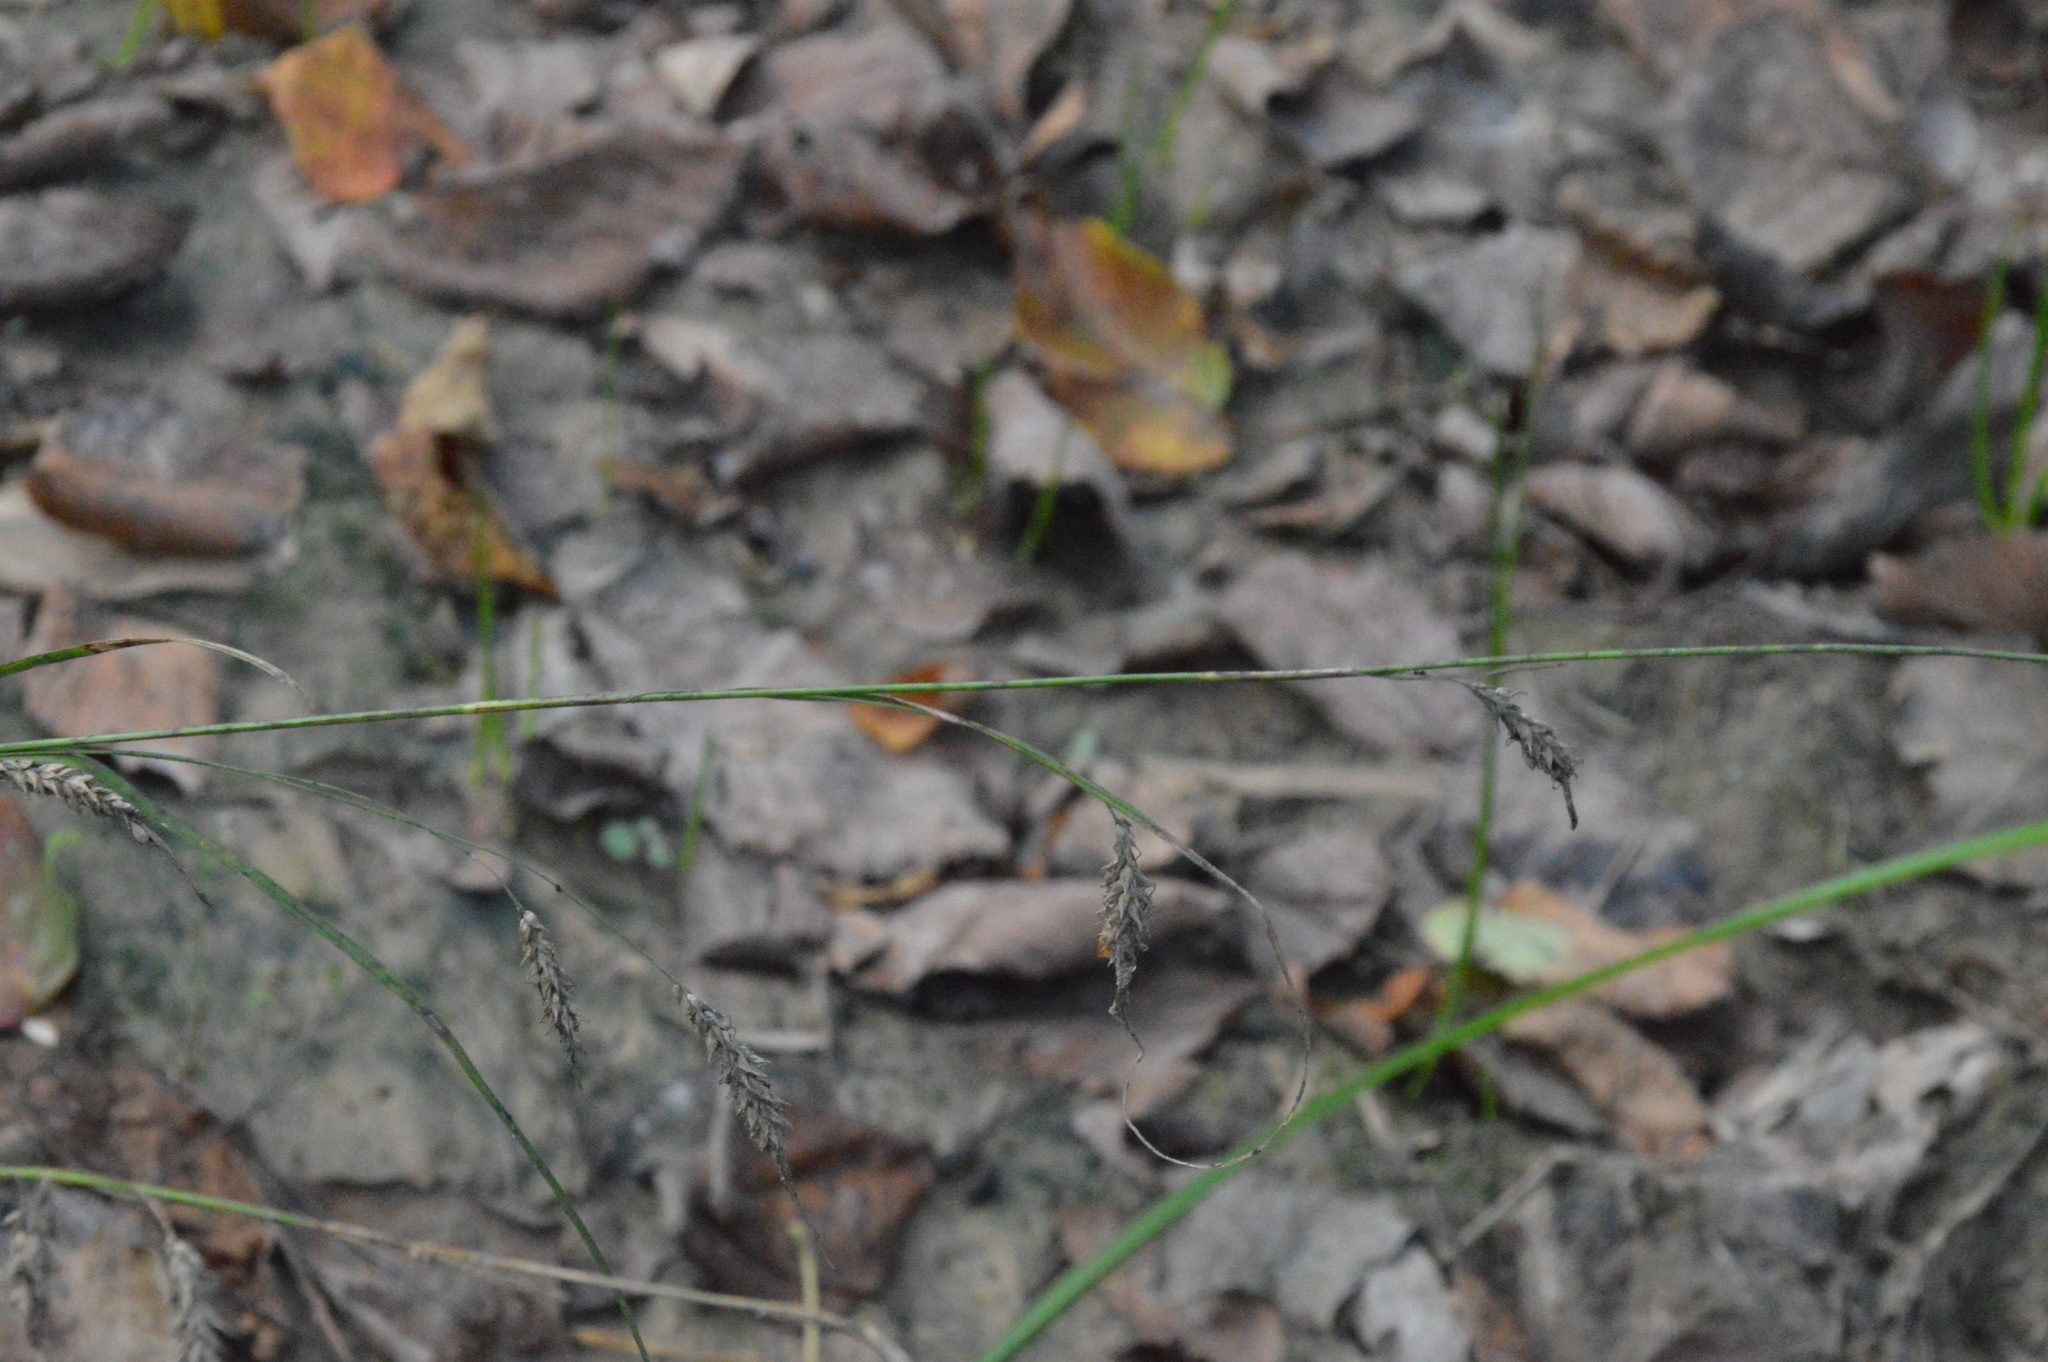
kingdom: Plantae
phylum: Tracheophyta
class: Liliopsida
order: Poales
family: Cyperaceae
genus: Carex
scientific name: Carex cherokeensis
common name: Cherokee sedge
